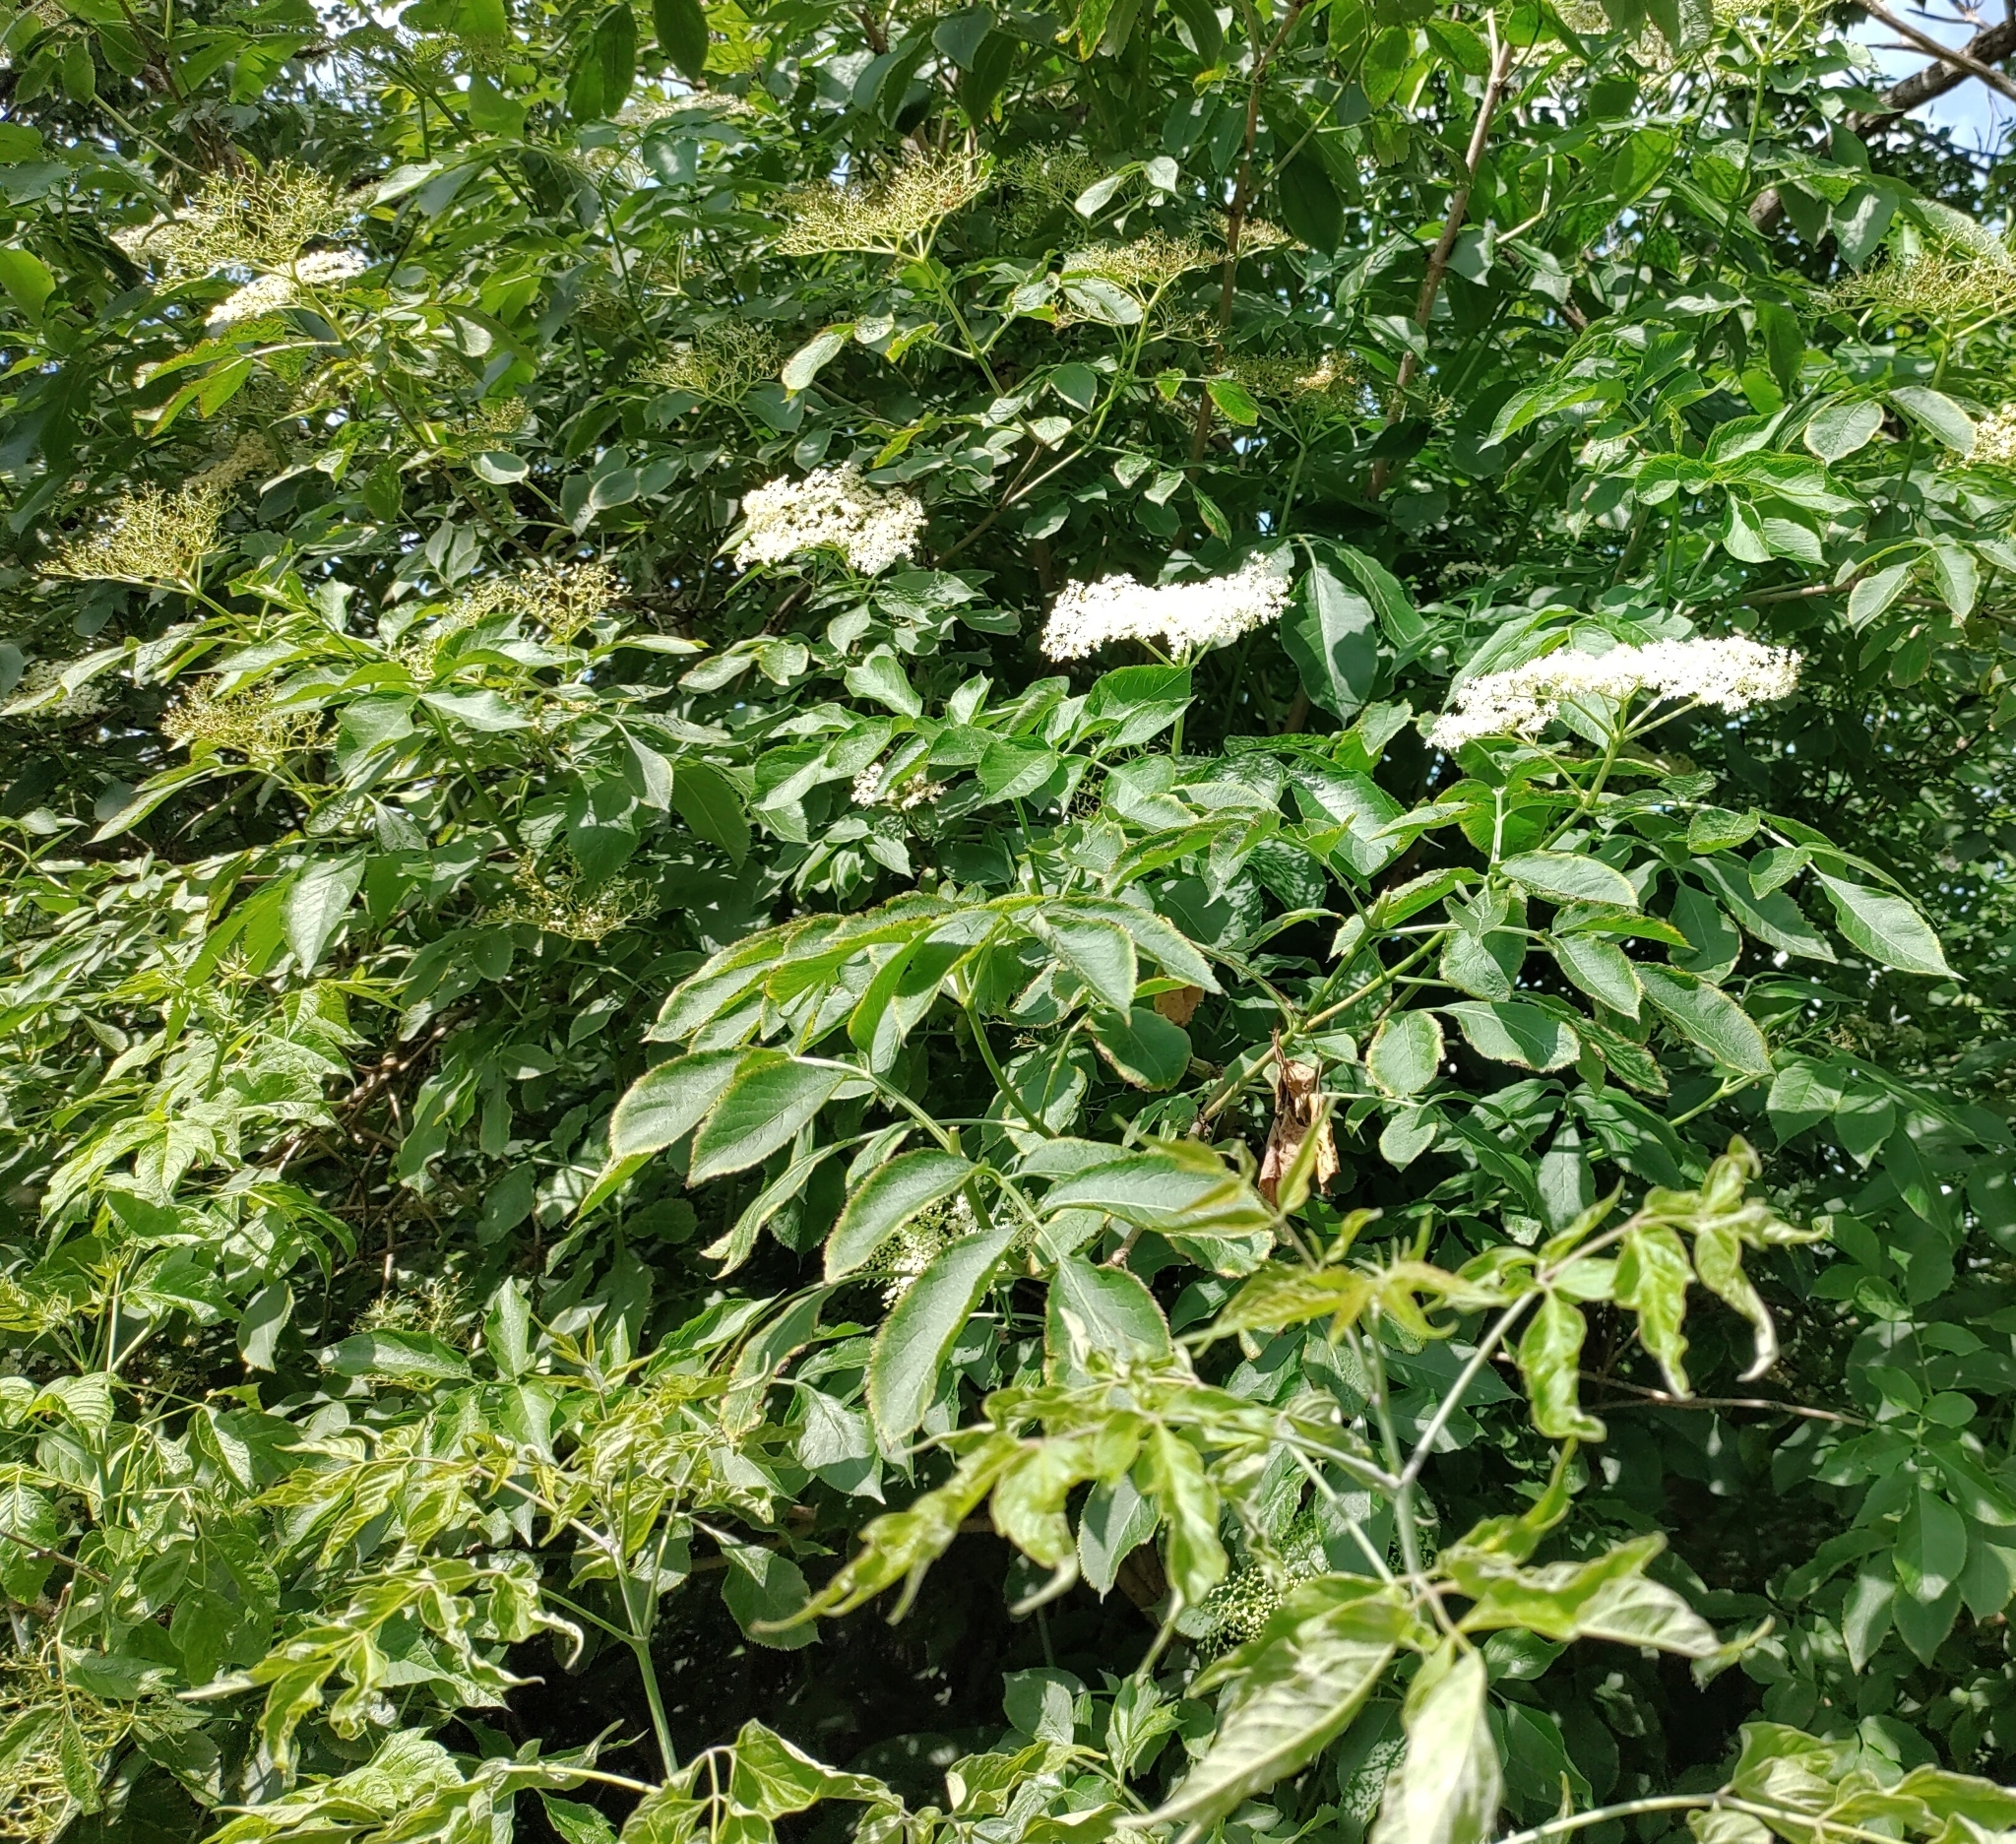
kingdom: Plantae
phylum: Tracheophyta
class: Magnoliopsida
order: Dipsacales
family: Viburnaceae
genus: Sambucus
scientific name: Sambucus nigra
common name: Elder
